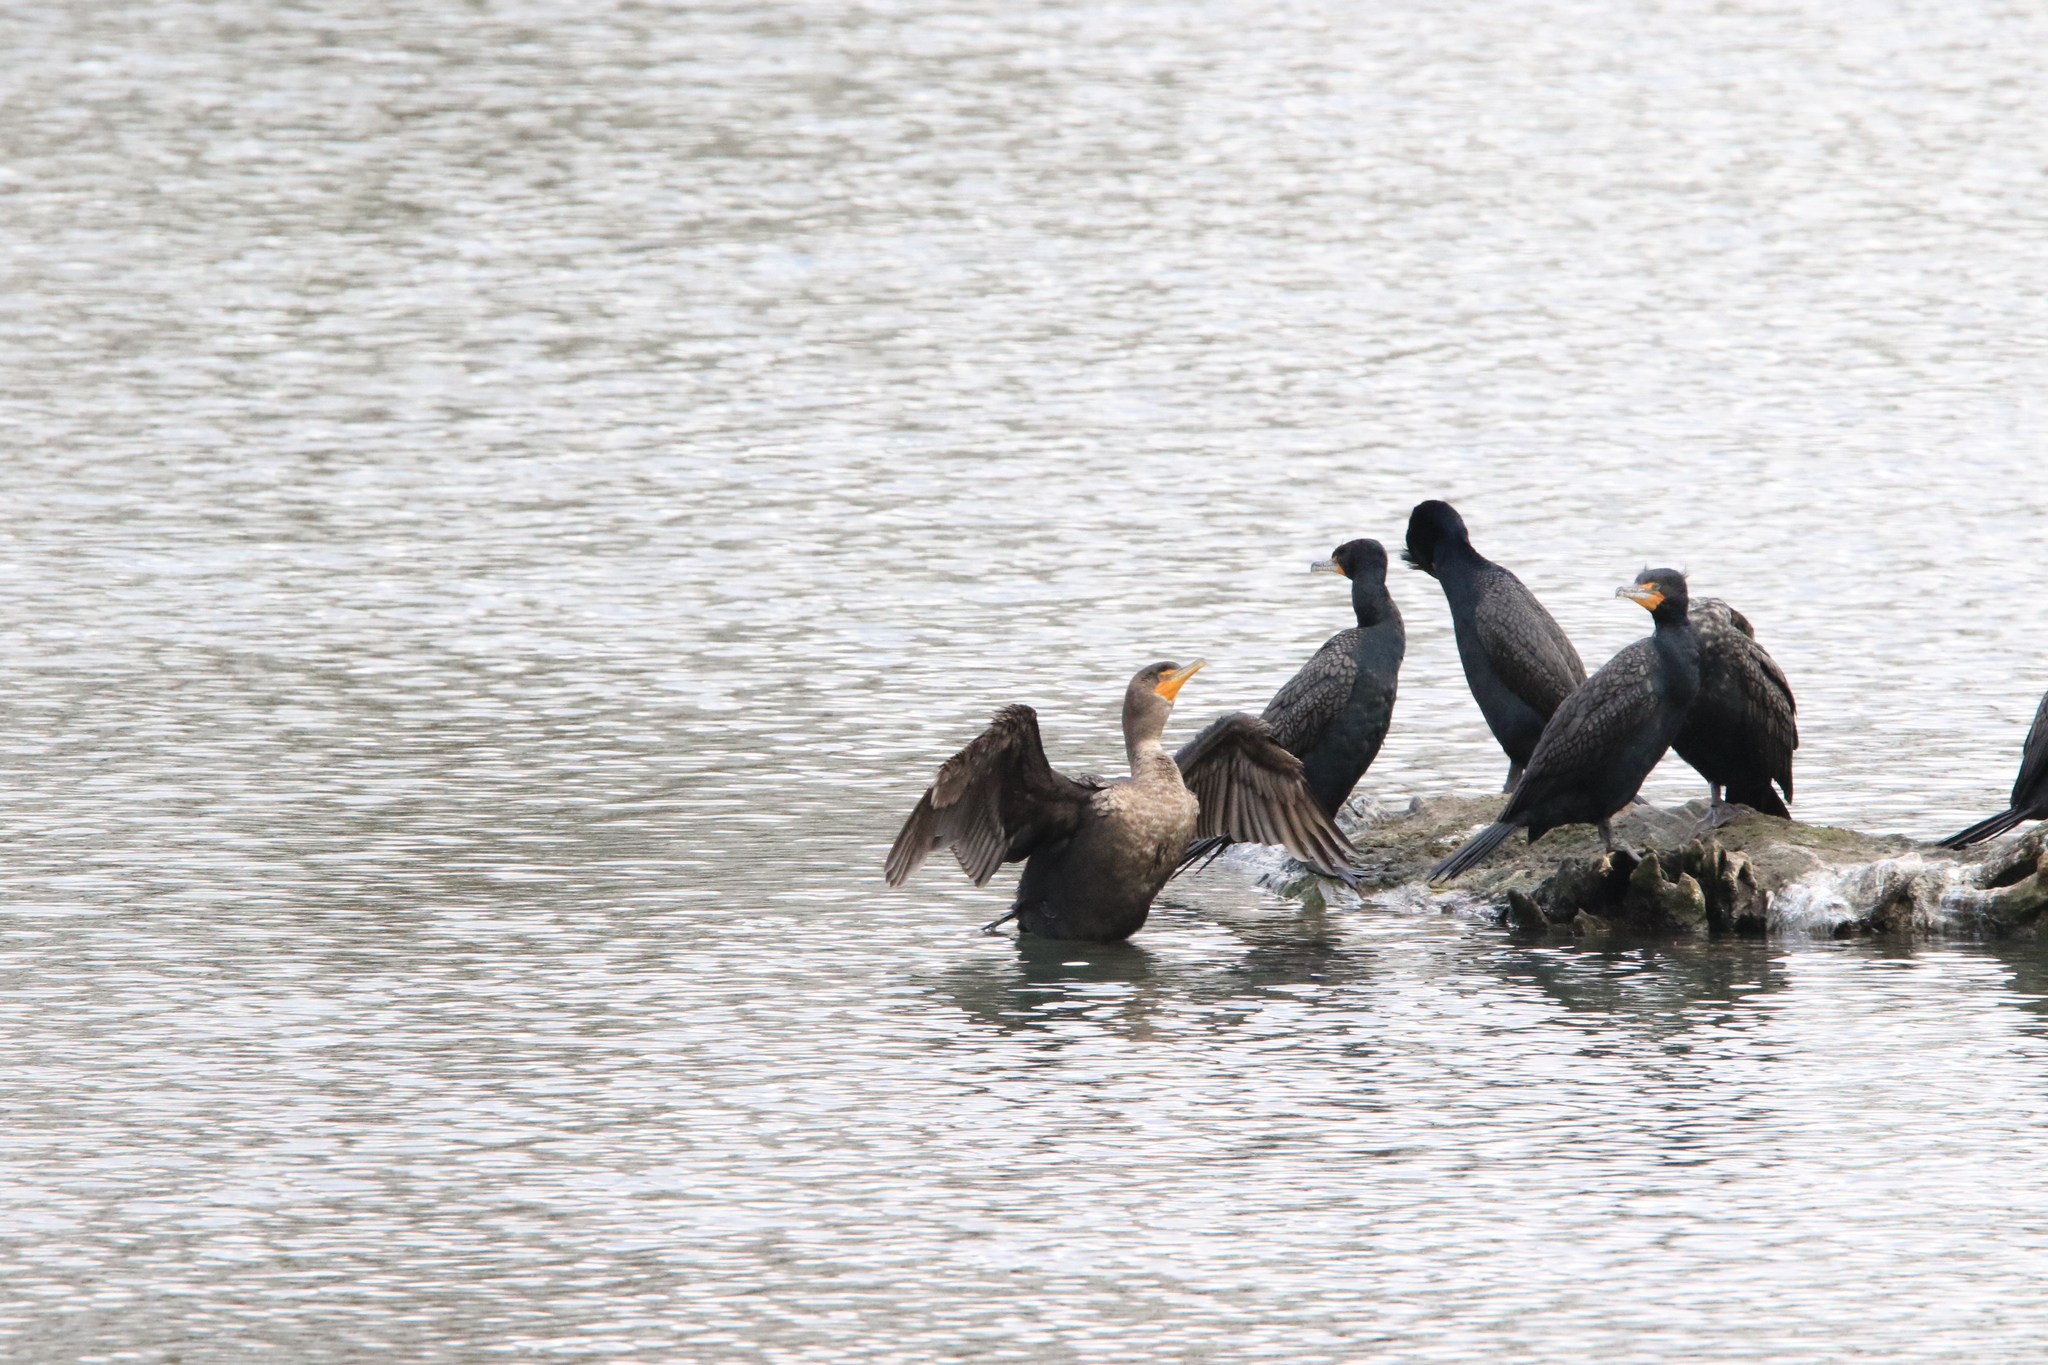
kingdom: Animalia
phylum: Chordata
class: Aves
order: Suliformes
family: Phalacrocoracidae
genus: Phalacrocorax
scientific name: Phalacrocorax auritus
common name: Double-crested cormorant
